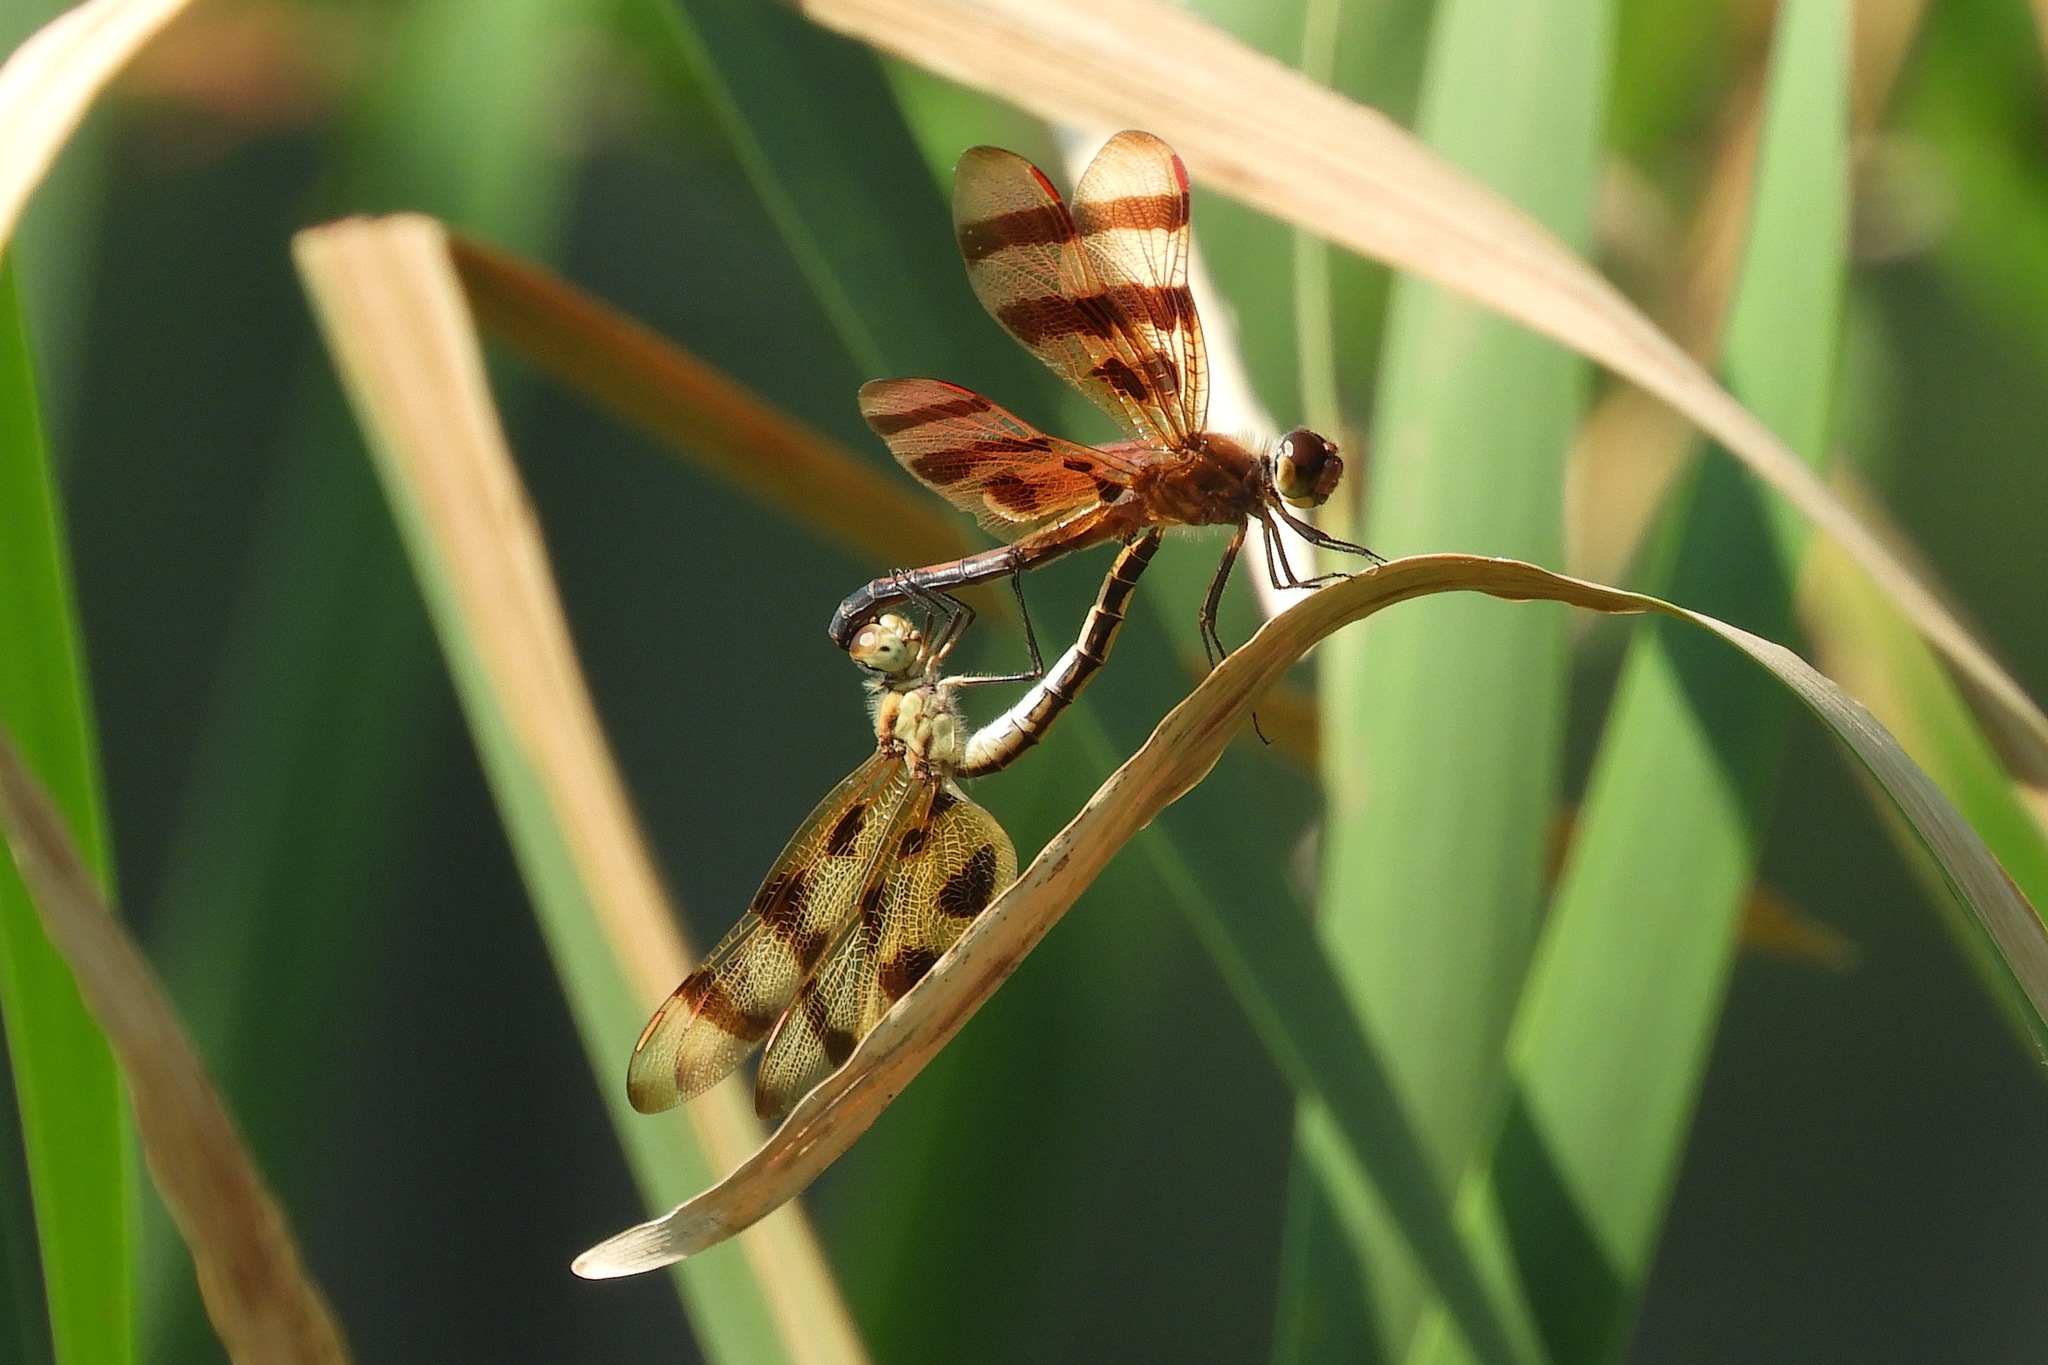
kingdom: Animalia
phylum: Arthropoda
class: Insecta
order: Odonata
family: Libellulidae
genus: Celithemis
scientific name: Celithemis eponina
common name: Halloween pennant
